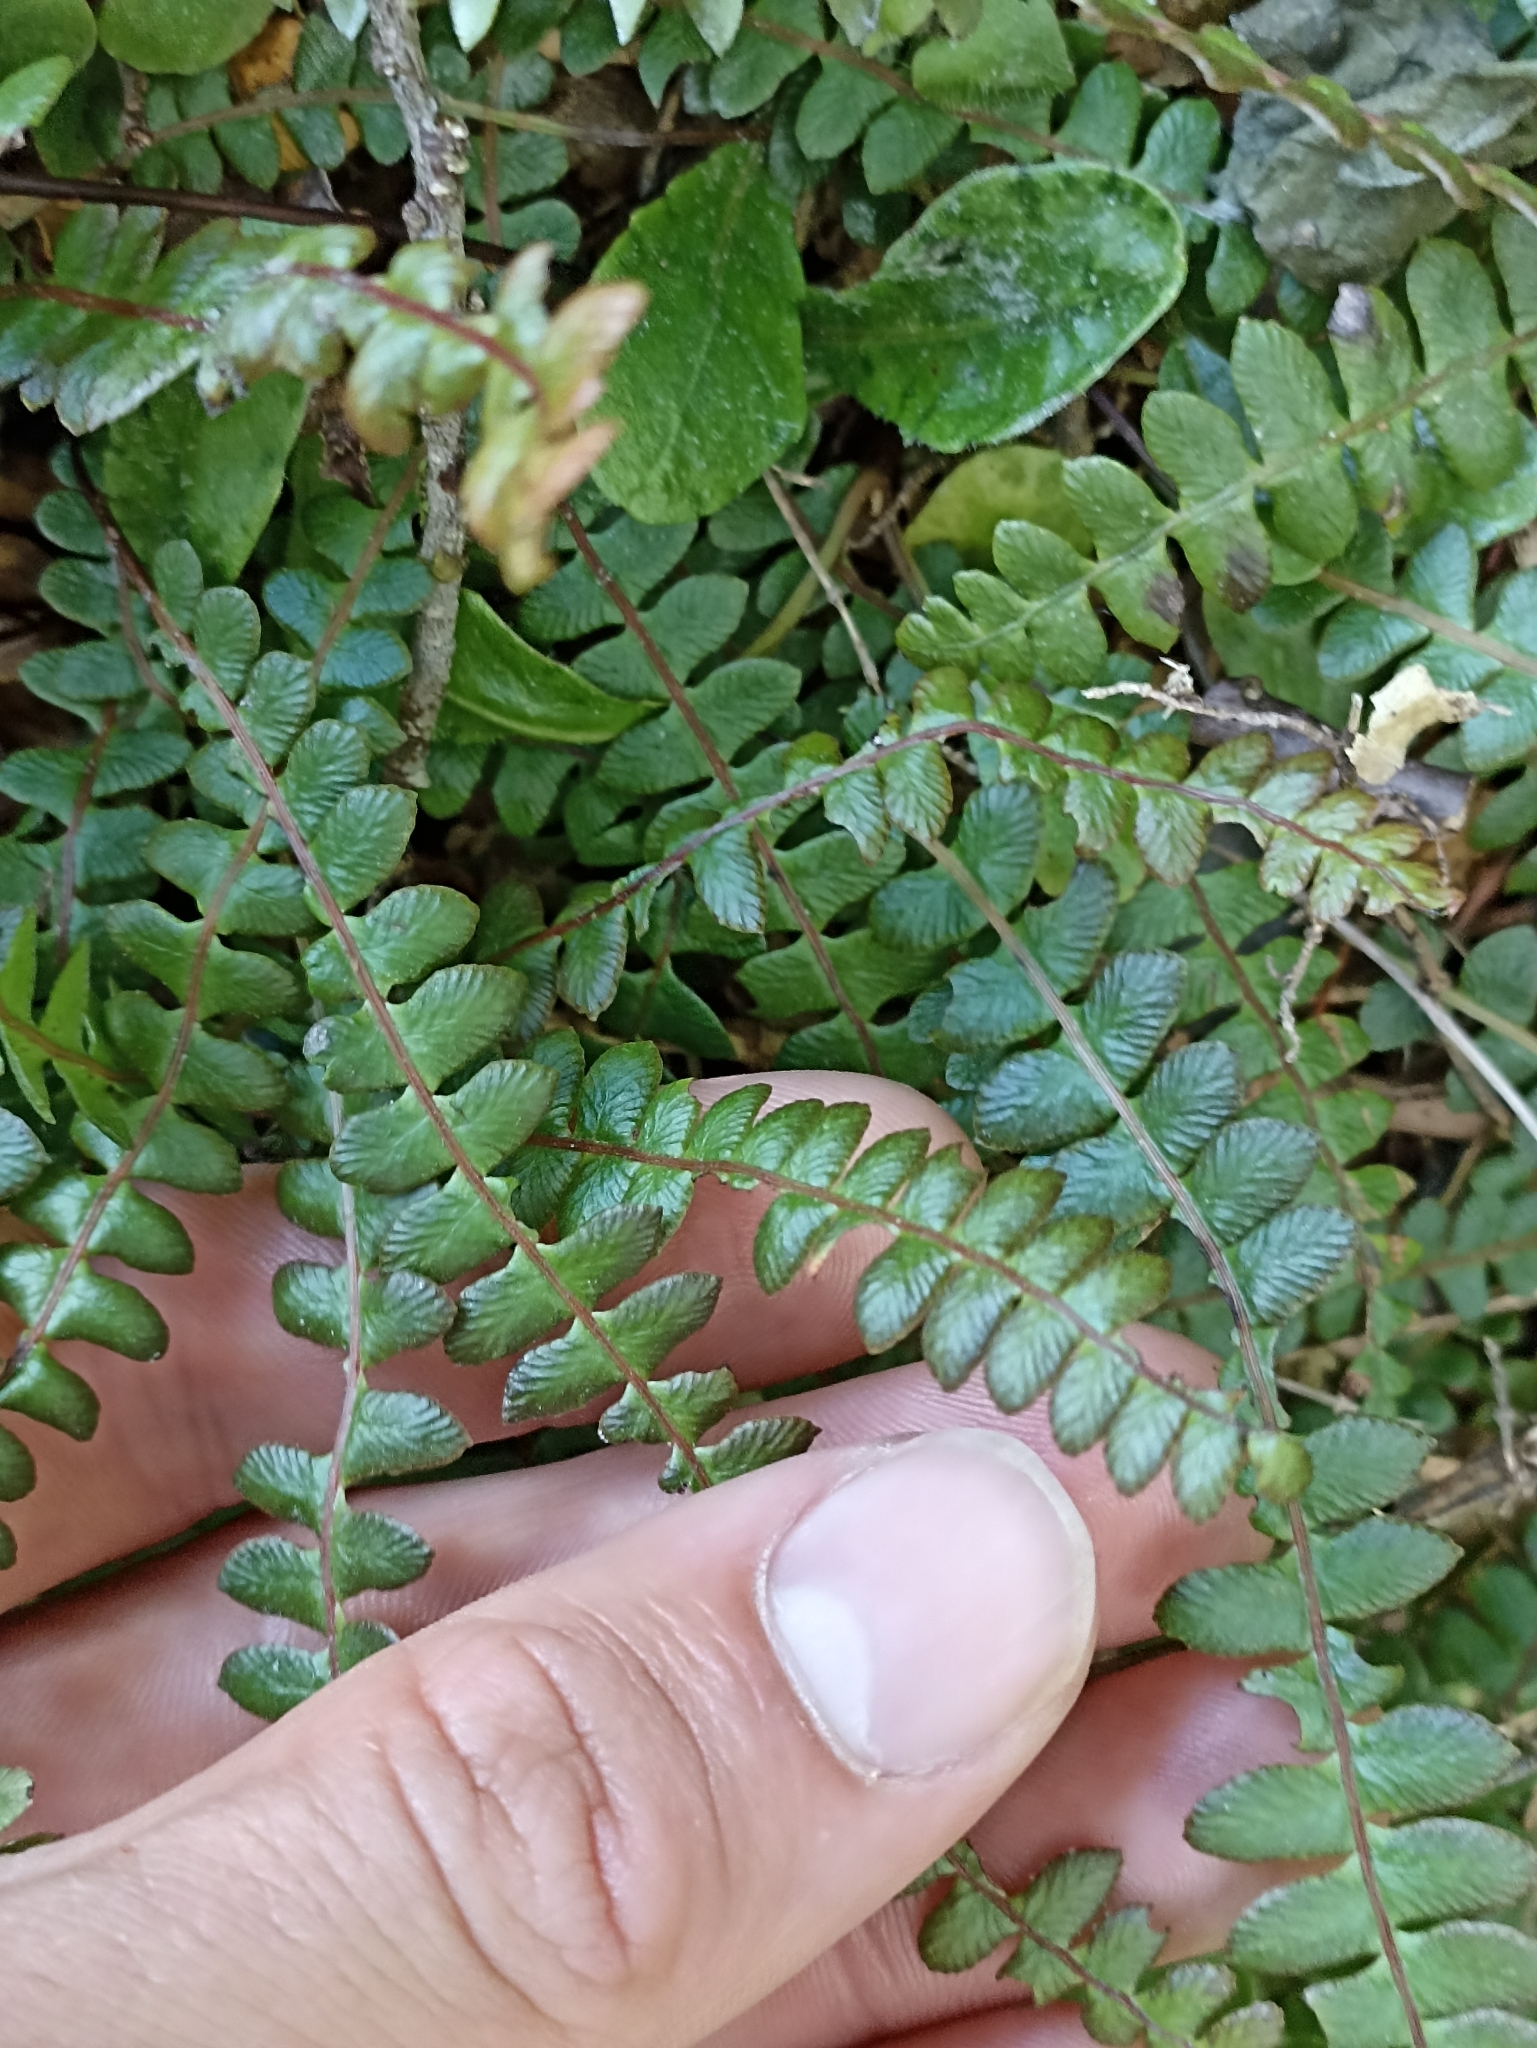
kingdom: Plantae
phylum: Tracheophyta
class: Polypodiopsida
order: Polypodiales
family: Blechnaceae
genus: Austroblechnum
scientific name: Austroblechnum penna-marina
